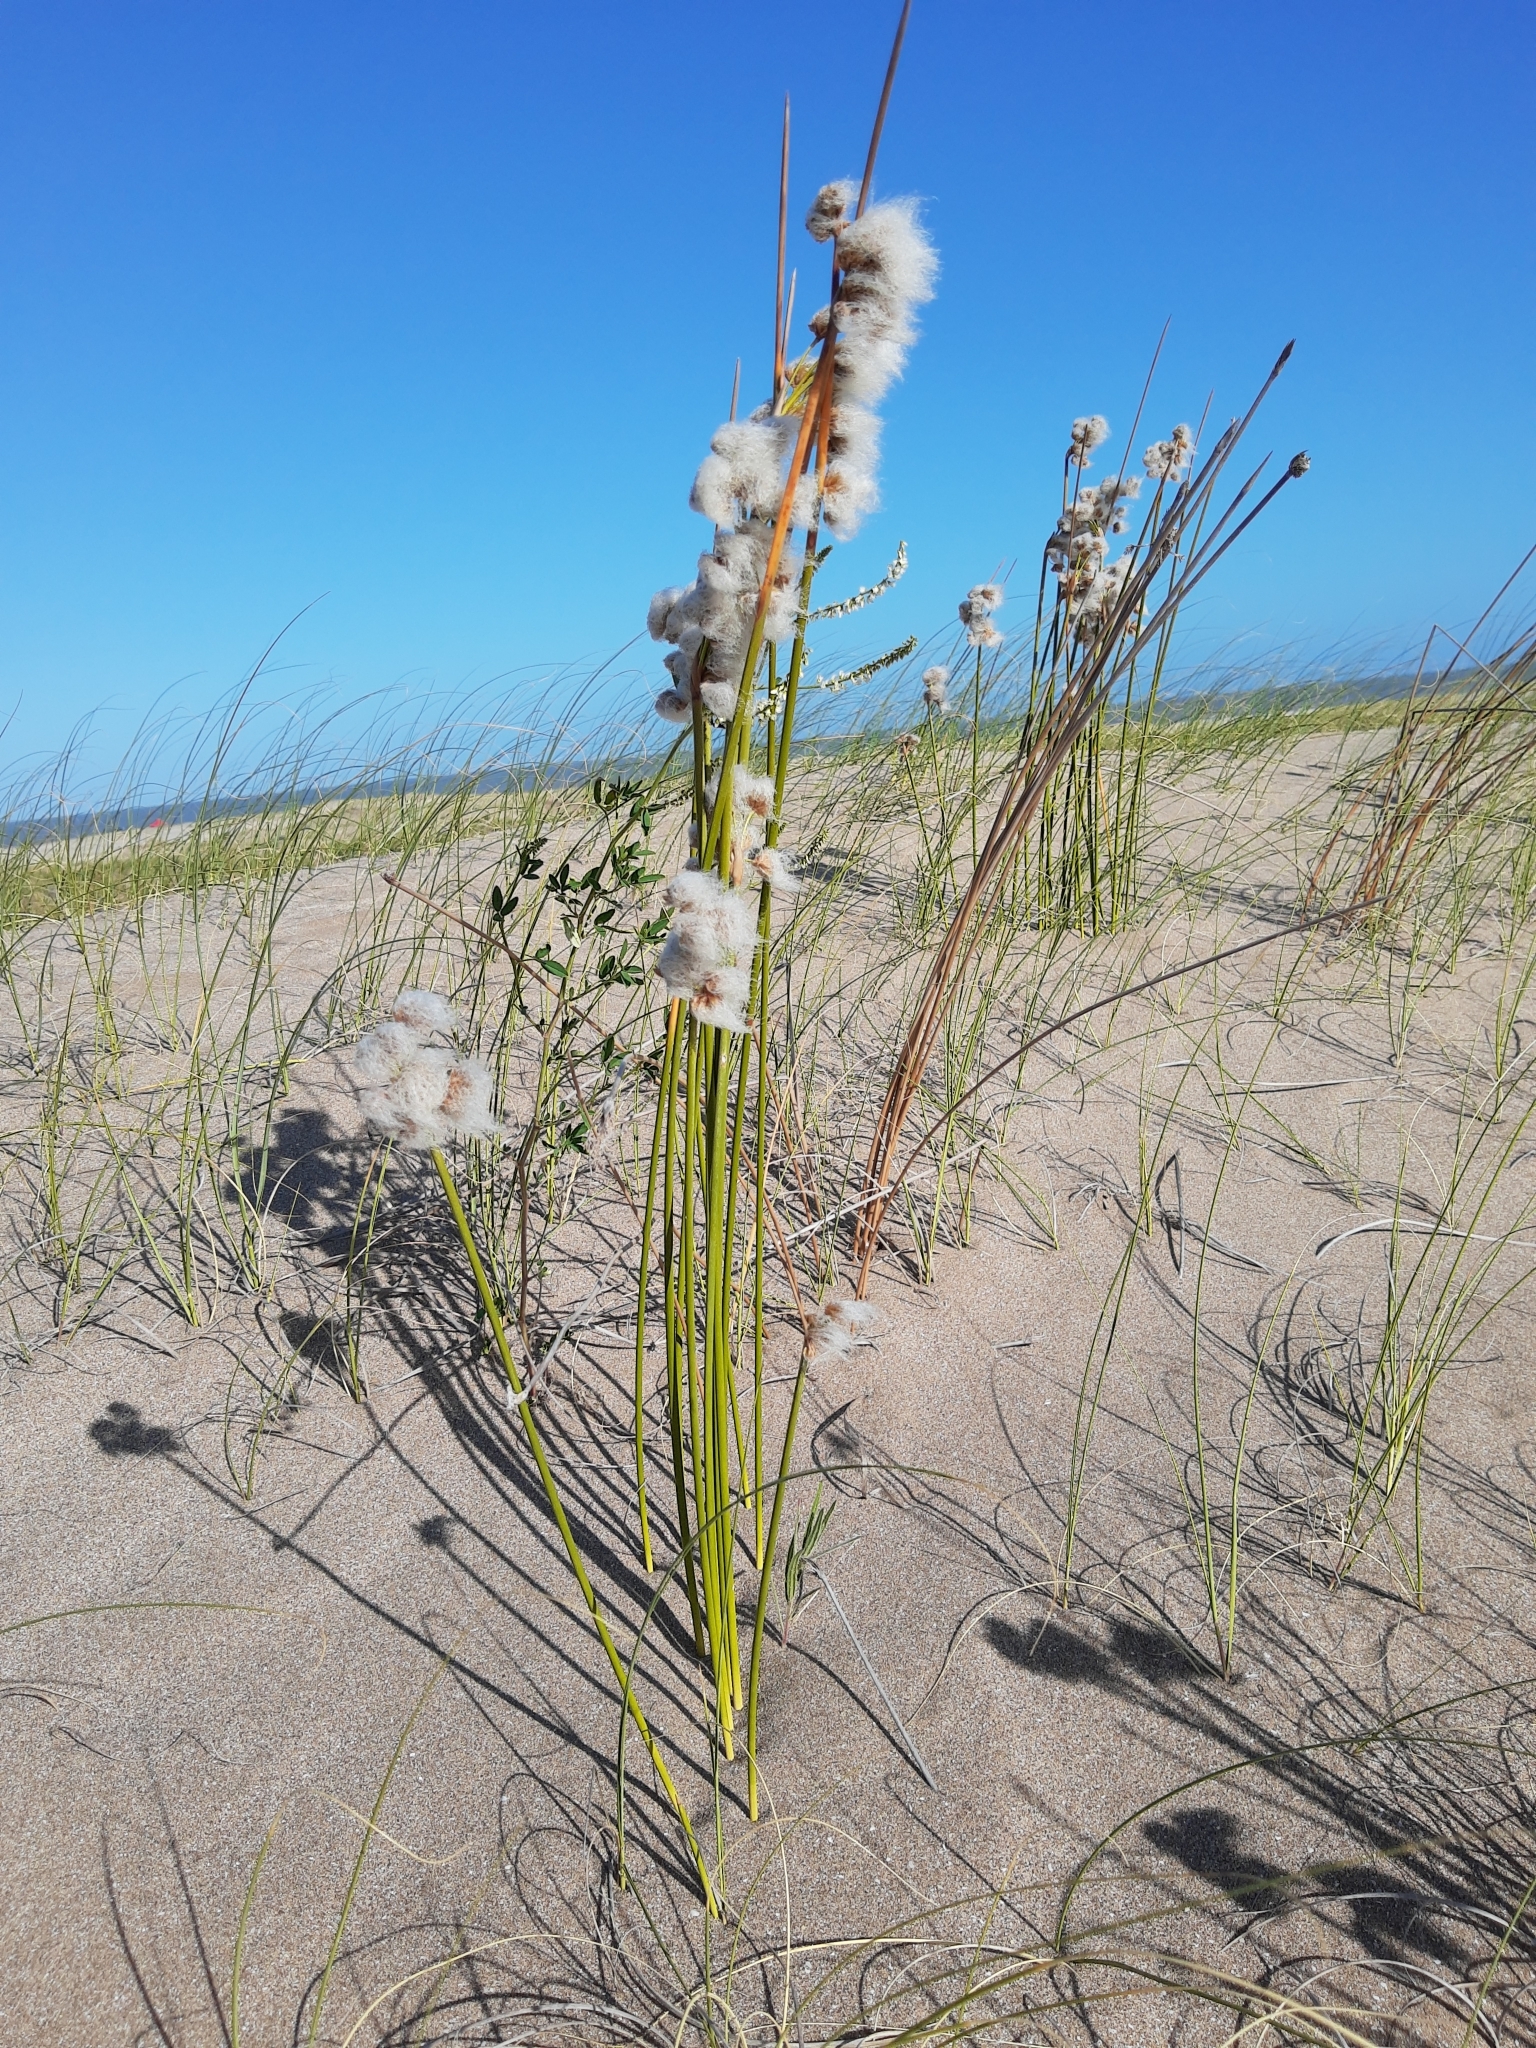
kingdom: Plantae
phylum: Tracheophyta
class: Liliopsida
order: Poales
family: Cyperaceae
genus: Cyperus
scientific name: Cyperus trigynus
